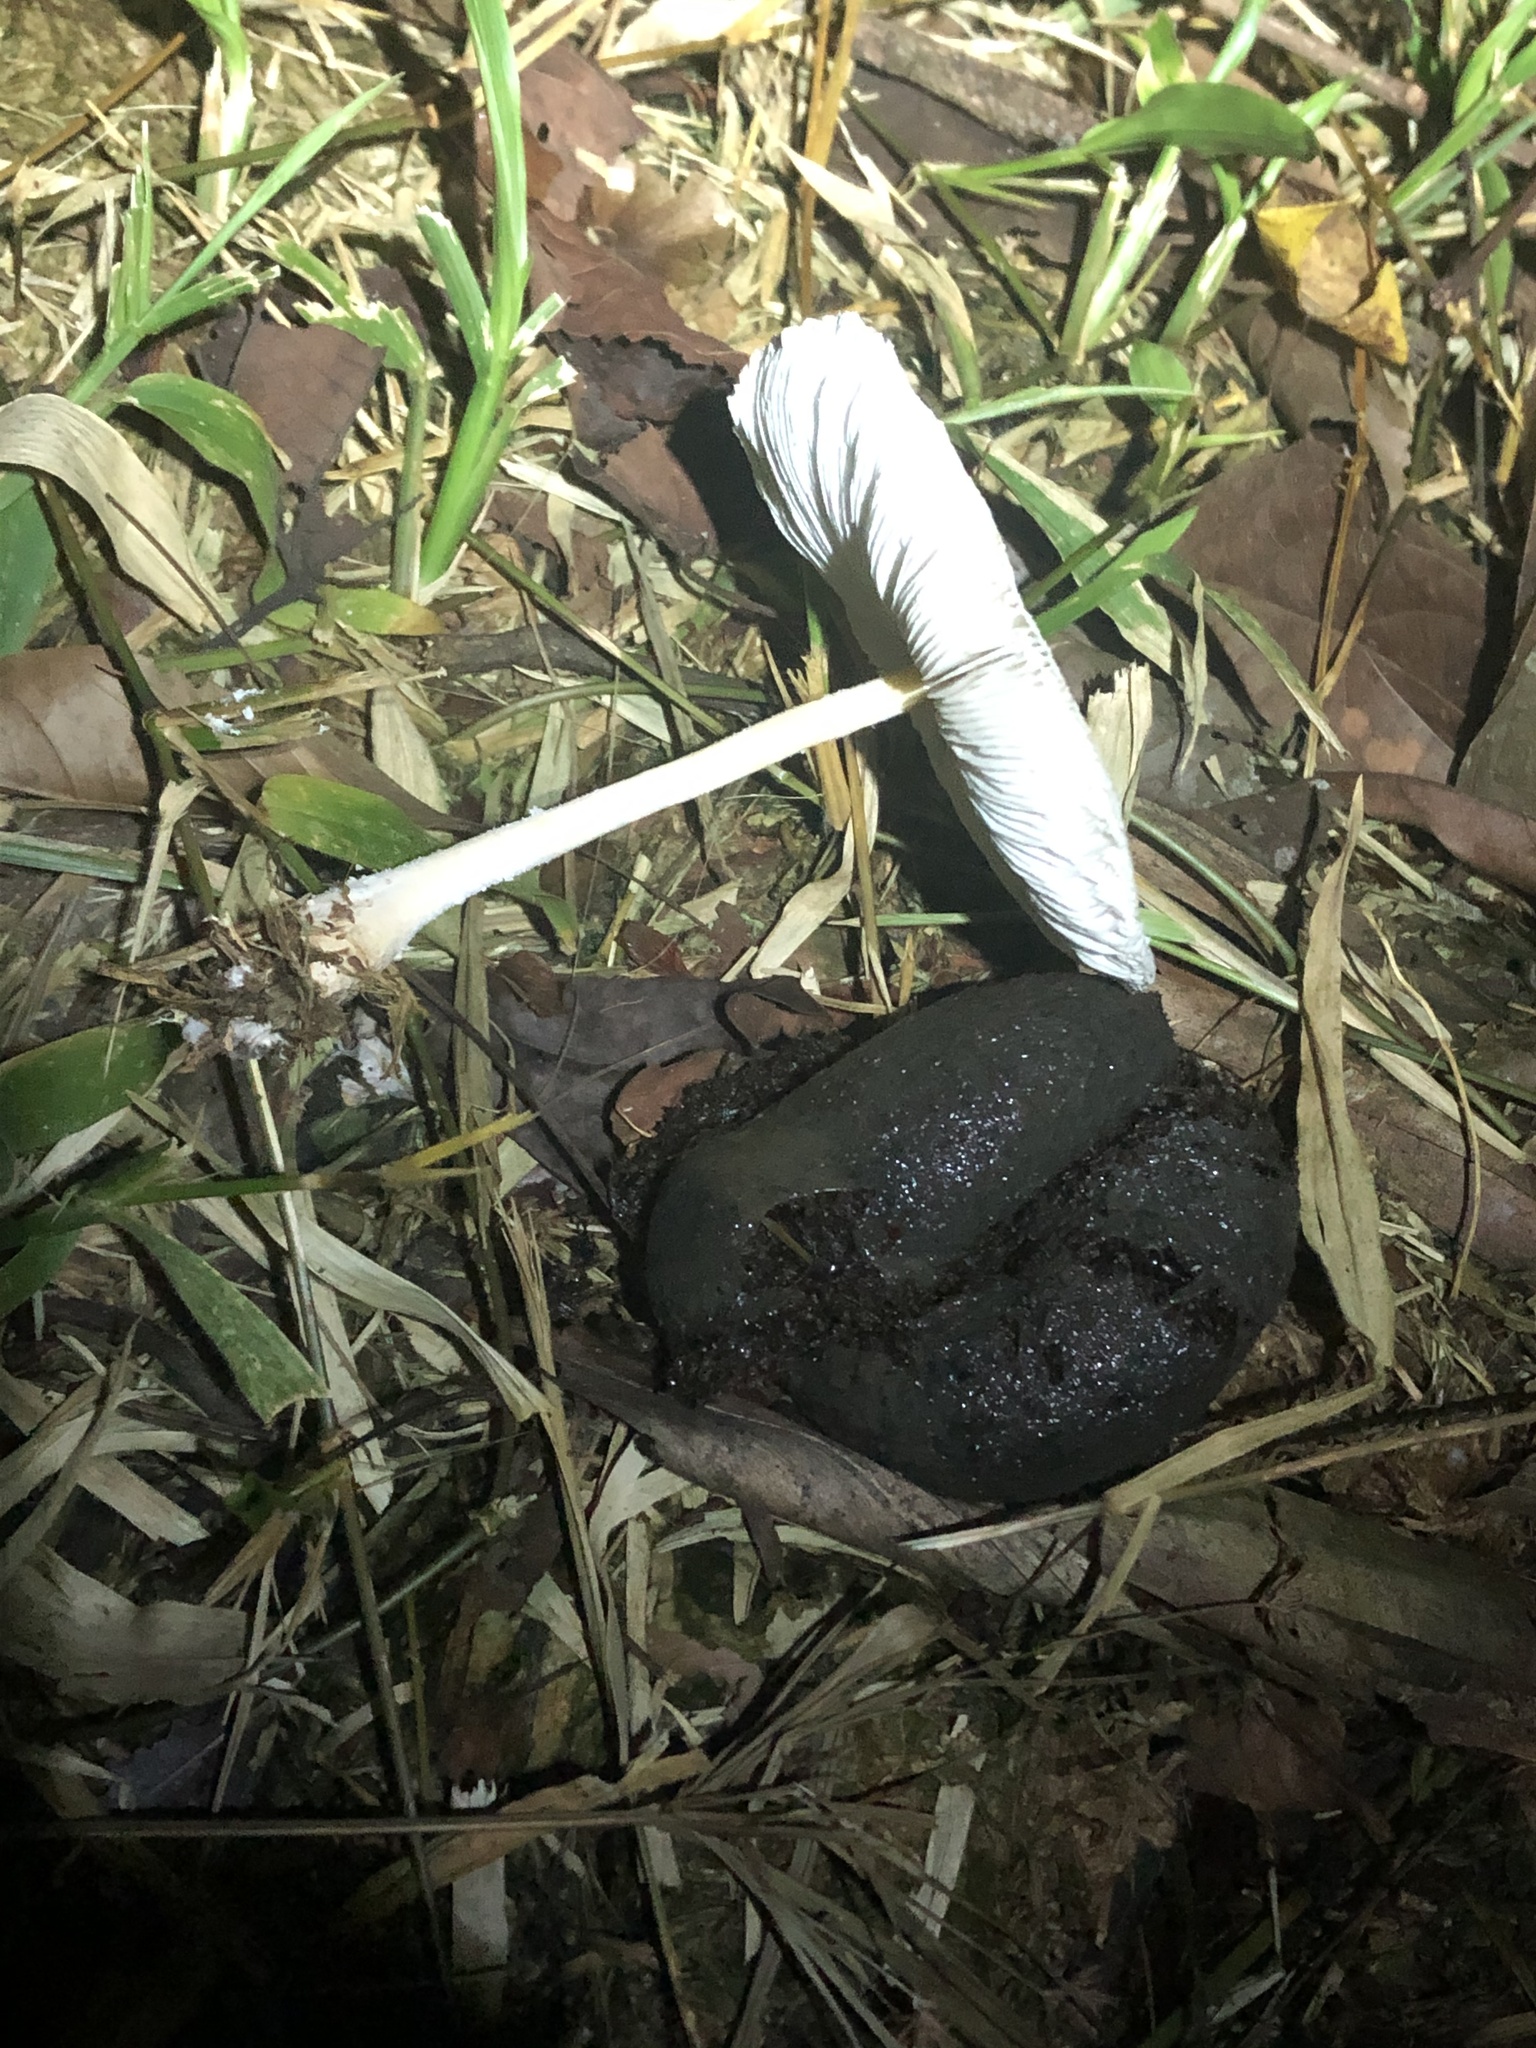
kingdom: Animalia
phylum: Chordata
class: Amphibia
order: Anura
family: Bufonidae
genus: Rhinella
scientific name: Rhinella marina
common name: Cane toad
